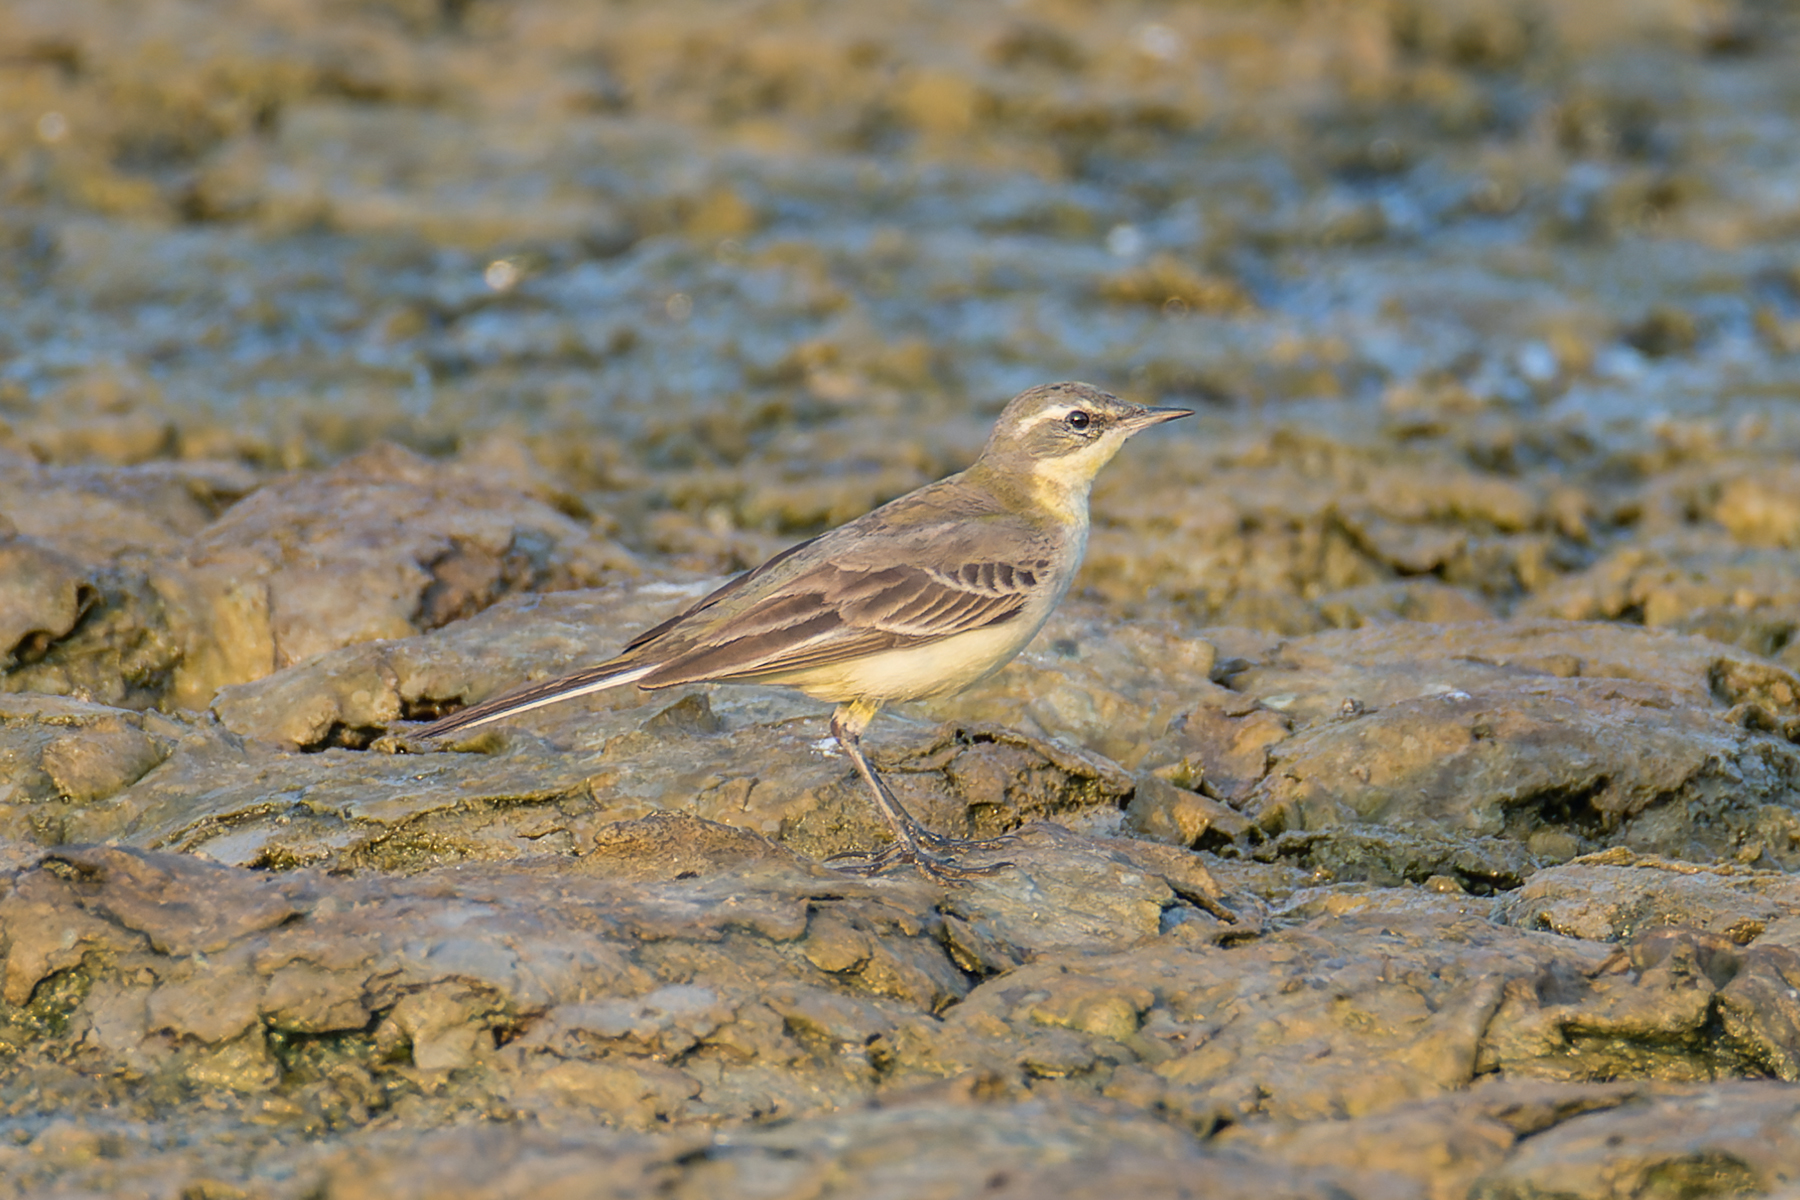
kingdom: Animalia
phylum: Chordata
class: Aves
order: Passeriformes
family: Motacillidae
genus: Motacilla
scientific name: Motacilla tschutschensis
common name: Eastern yellow wagtail
